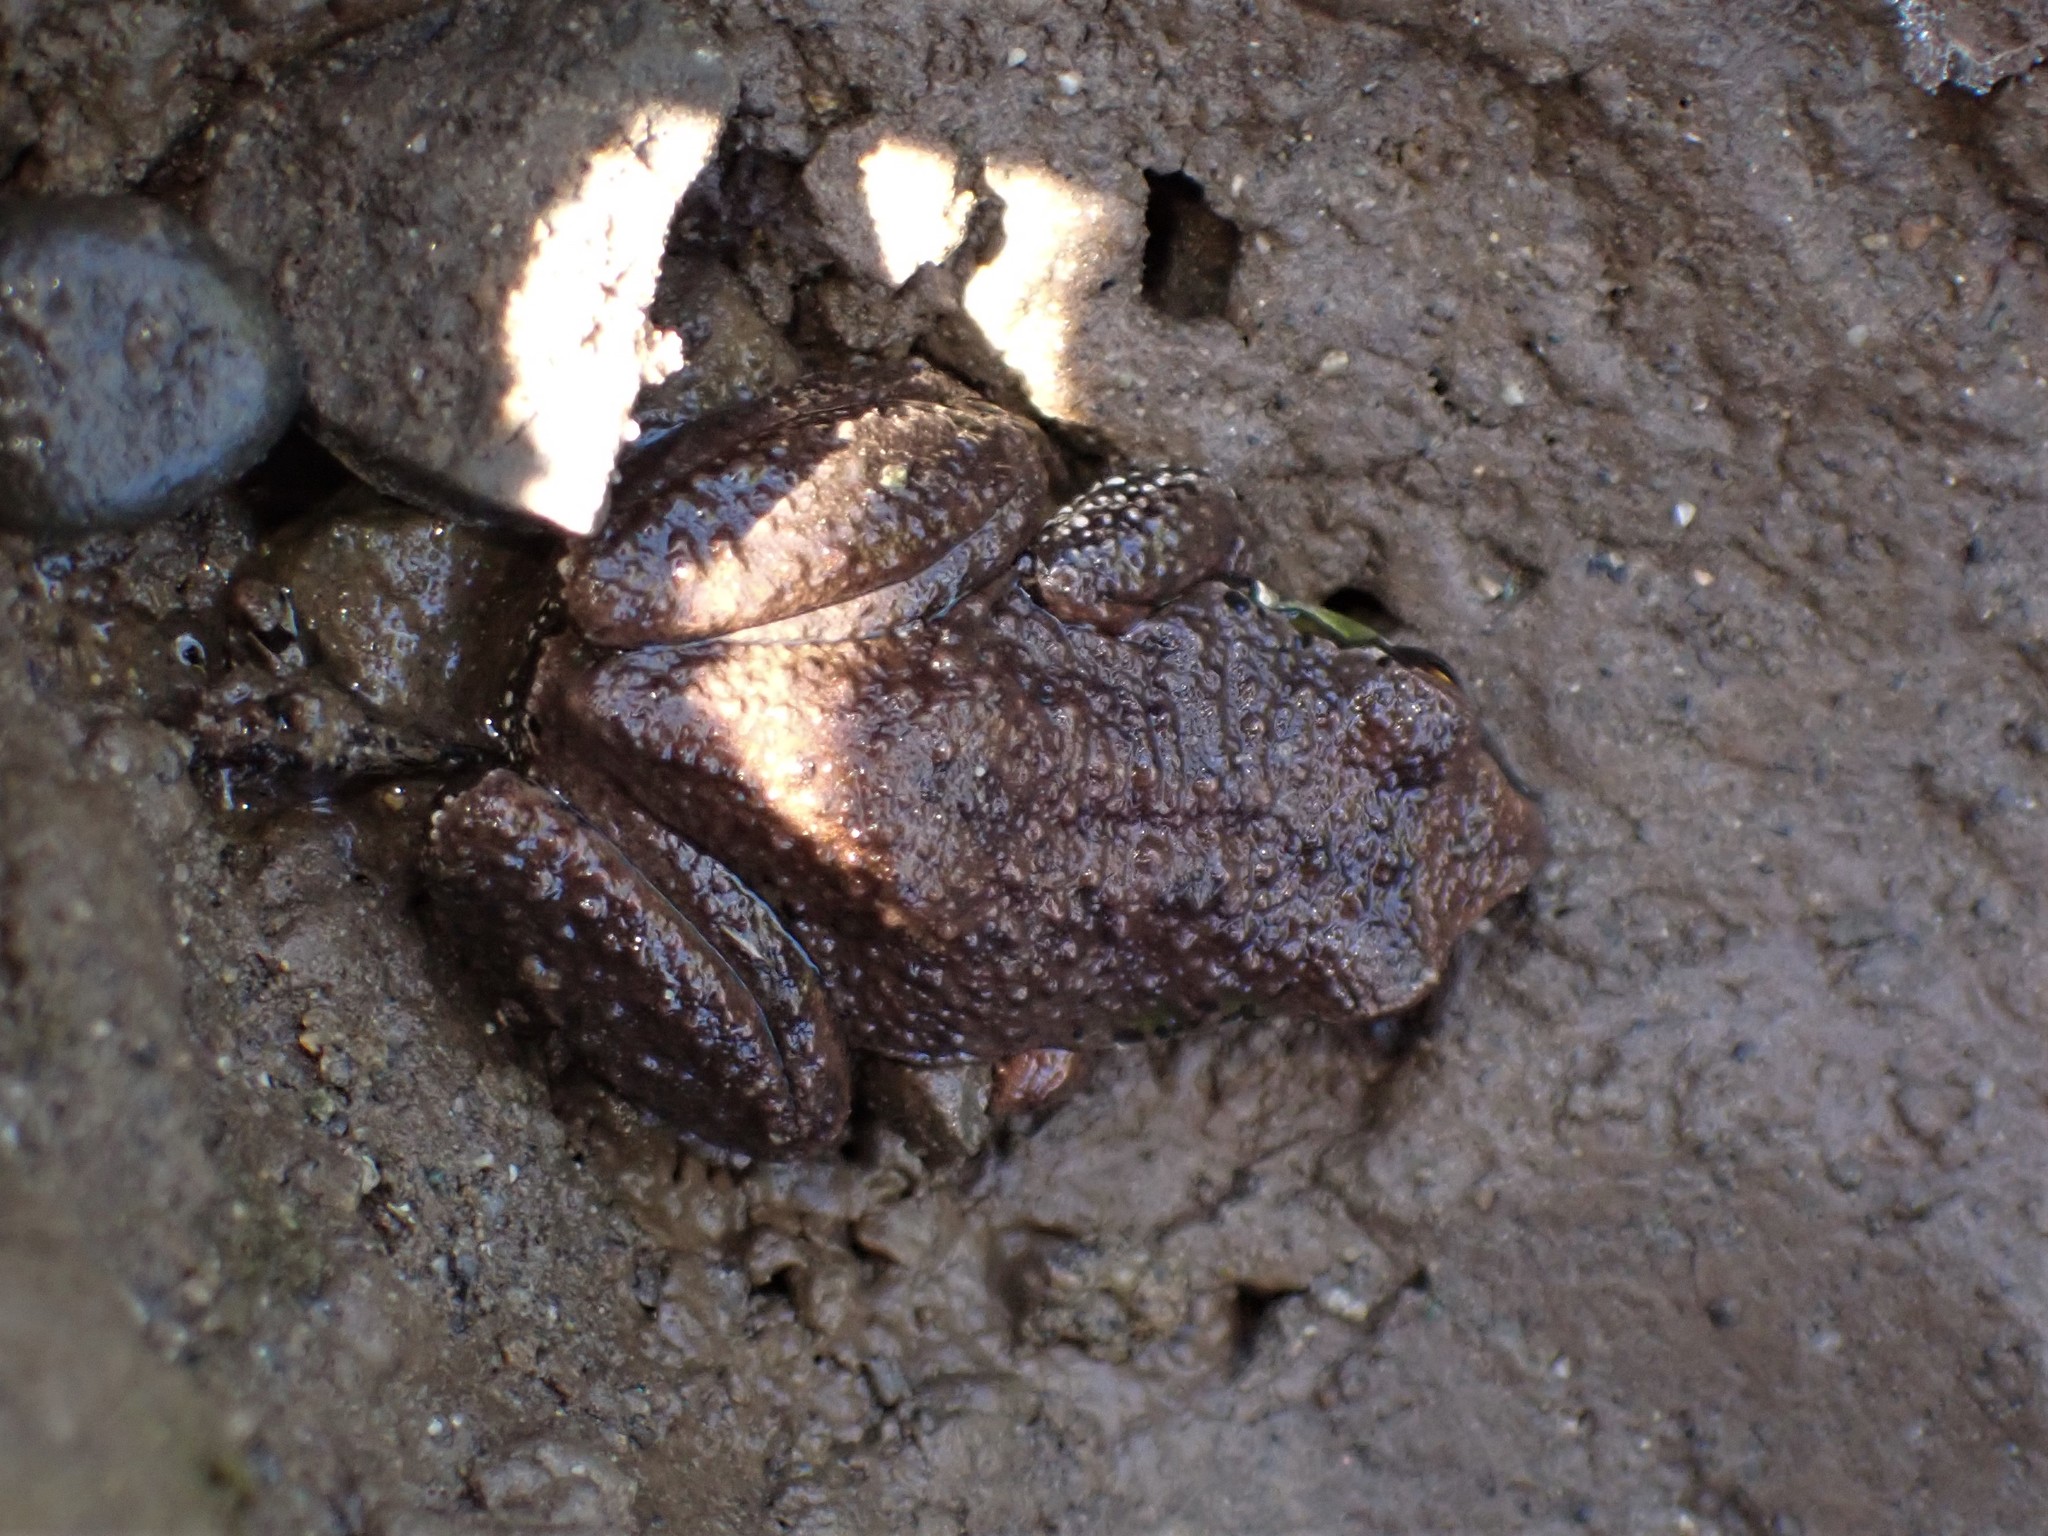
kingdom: Animalia
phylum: Chordata
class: Amphibia
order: Anura
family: Hylidae
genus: Pseudacris
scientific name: Pseudacris regilla
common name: Pacific chorus frog
